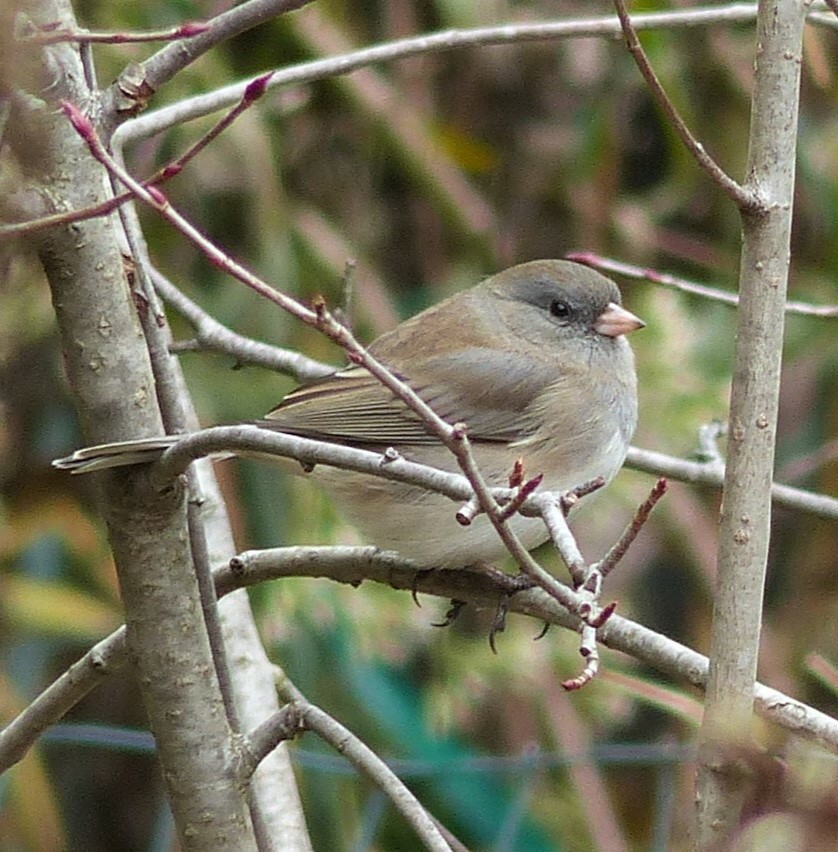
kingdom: Animalia
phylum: Chordata
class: Aves
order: Passeriformes
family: Passerellidae
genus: Junco
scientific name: Junco hyemalis
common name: Dark-eyed junco
